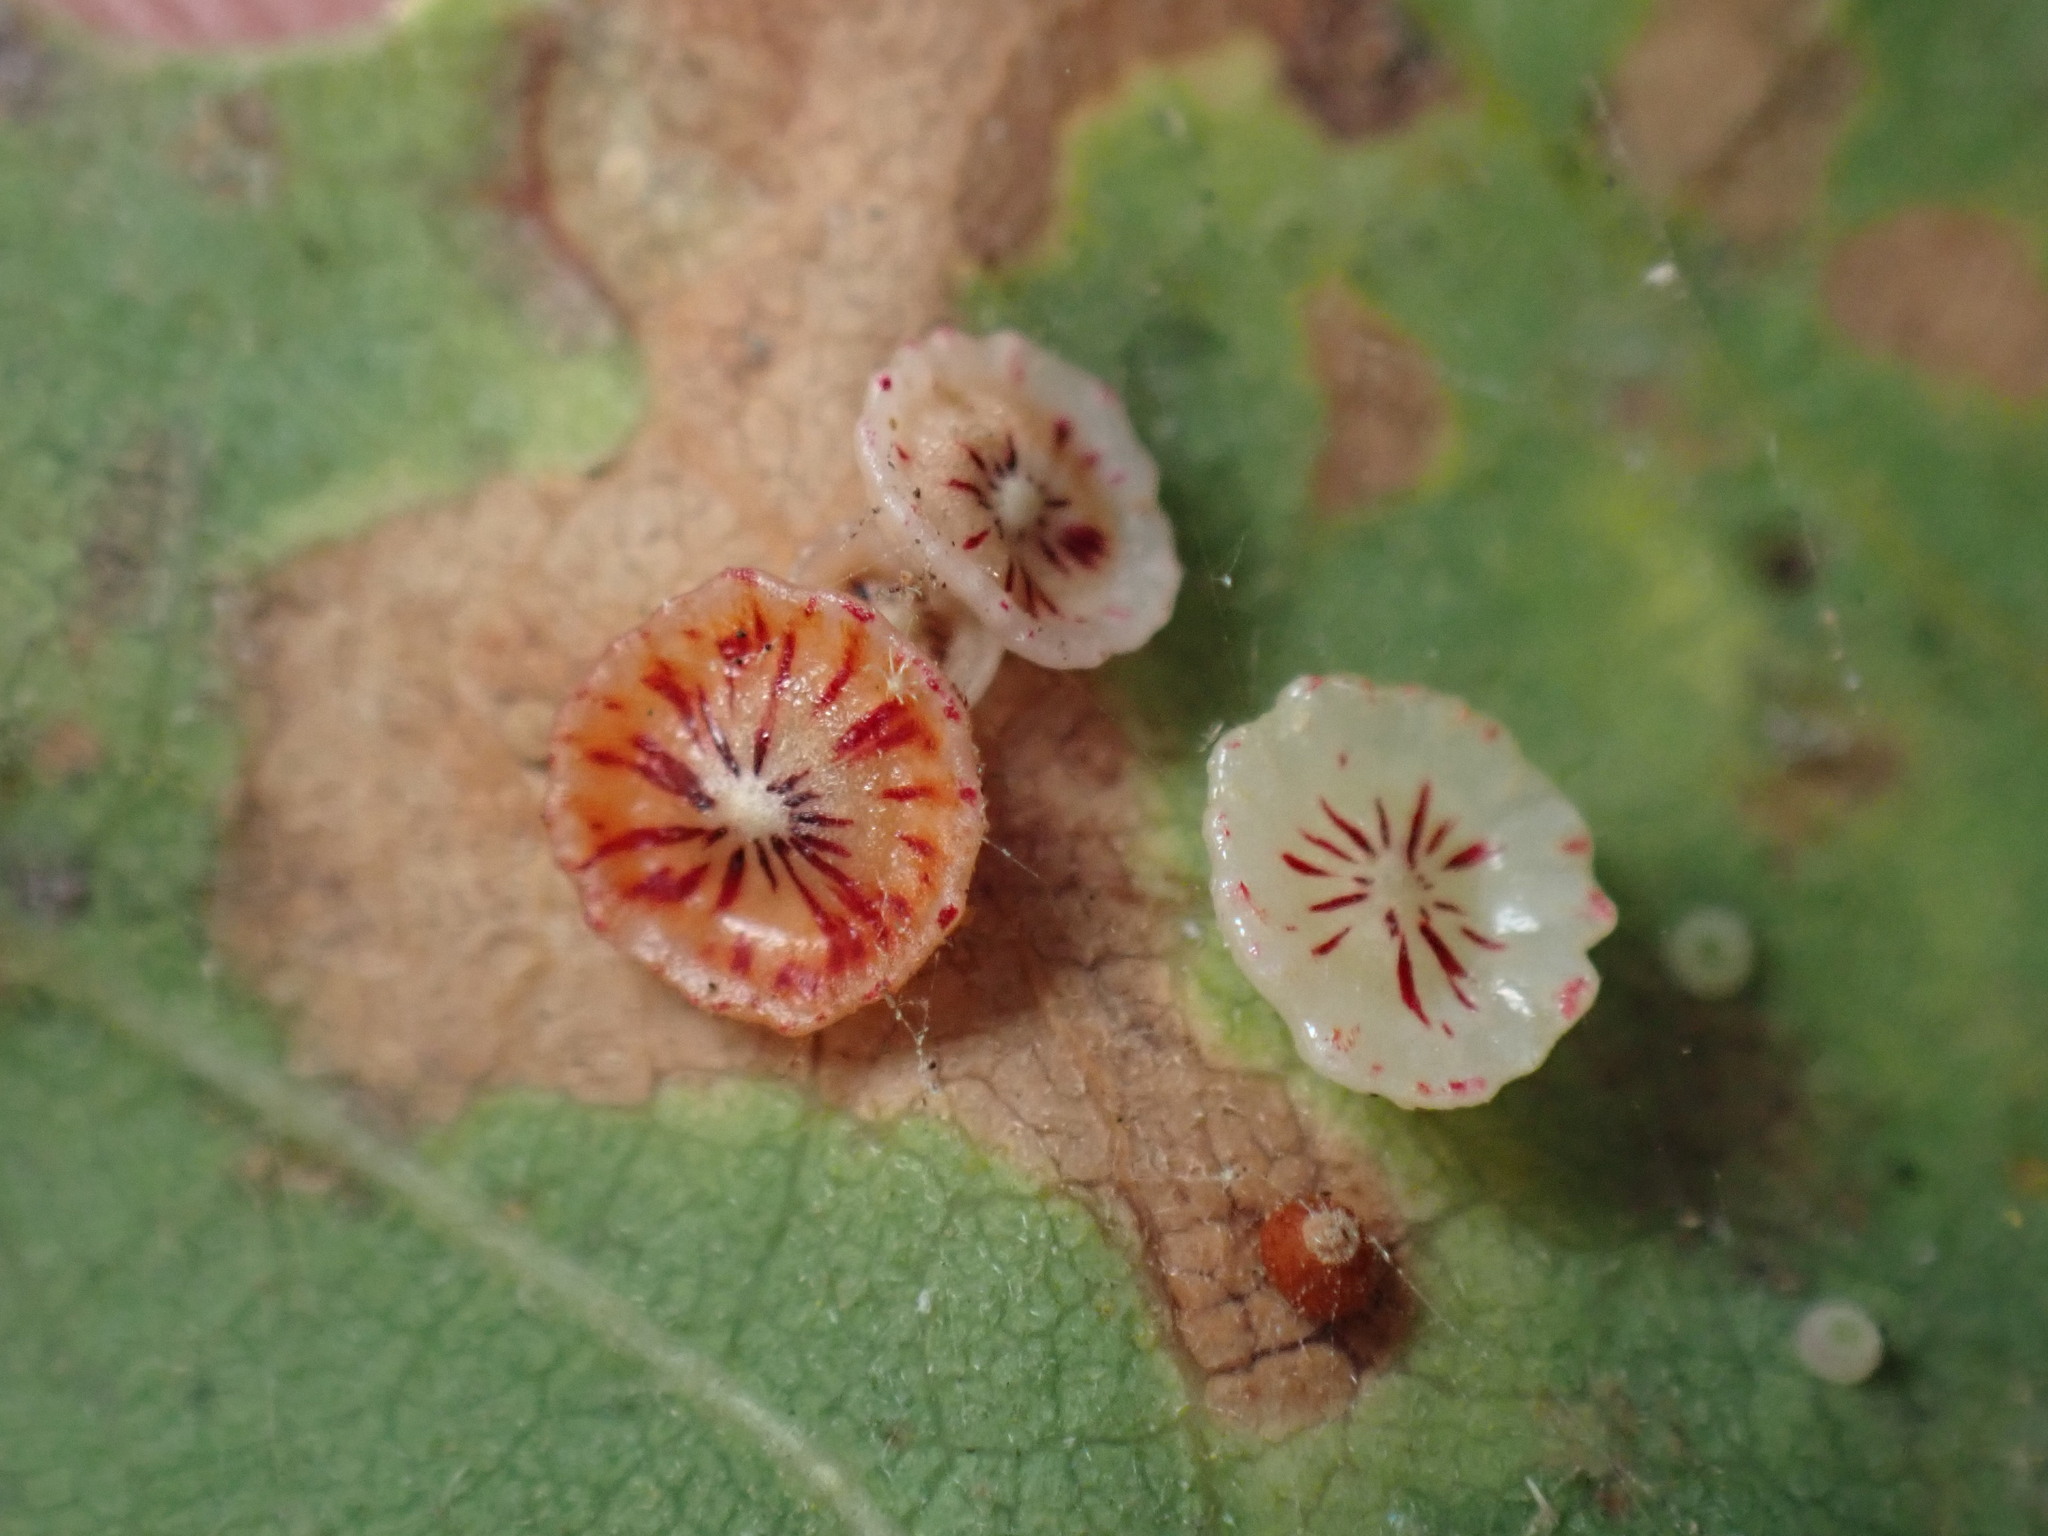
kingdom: Animalia
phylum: Arthropoda
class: Insecta
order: Hymenoptera
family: Cynipidae
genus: Andricus
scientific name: Andricus
